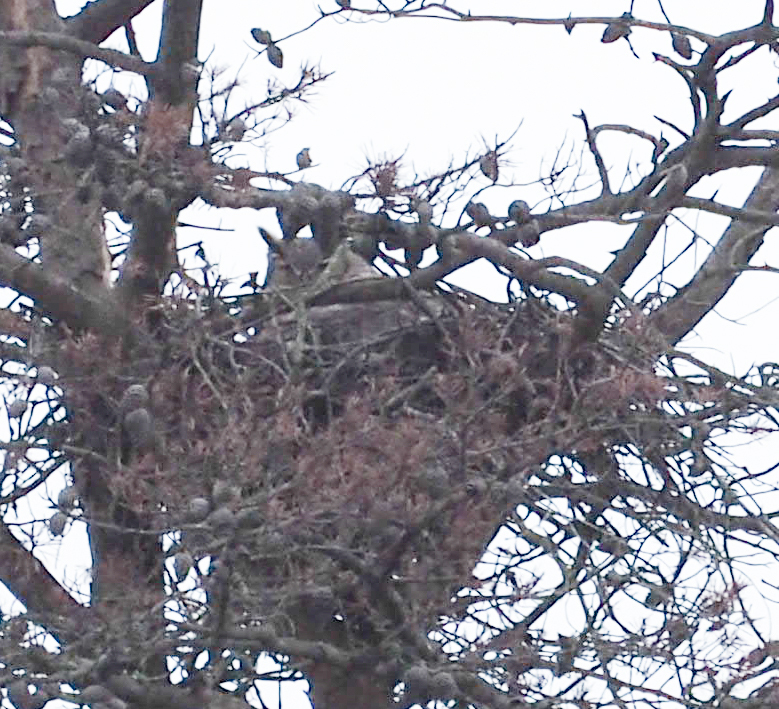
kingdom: Animalia
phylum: Chordata
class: Aves
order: Strigiformes
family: Strigidae
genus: Bubo
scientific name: Bubo virginianus
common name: Great horned owl
